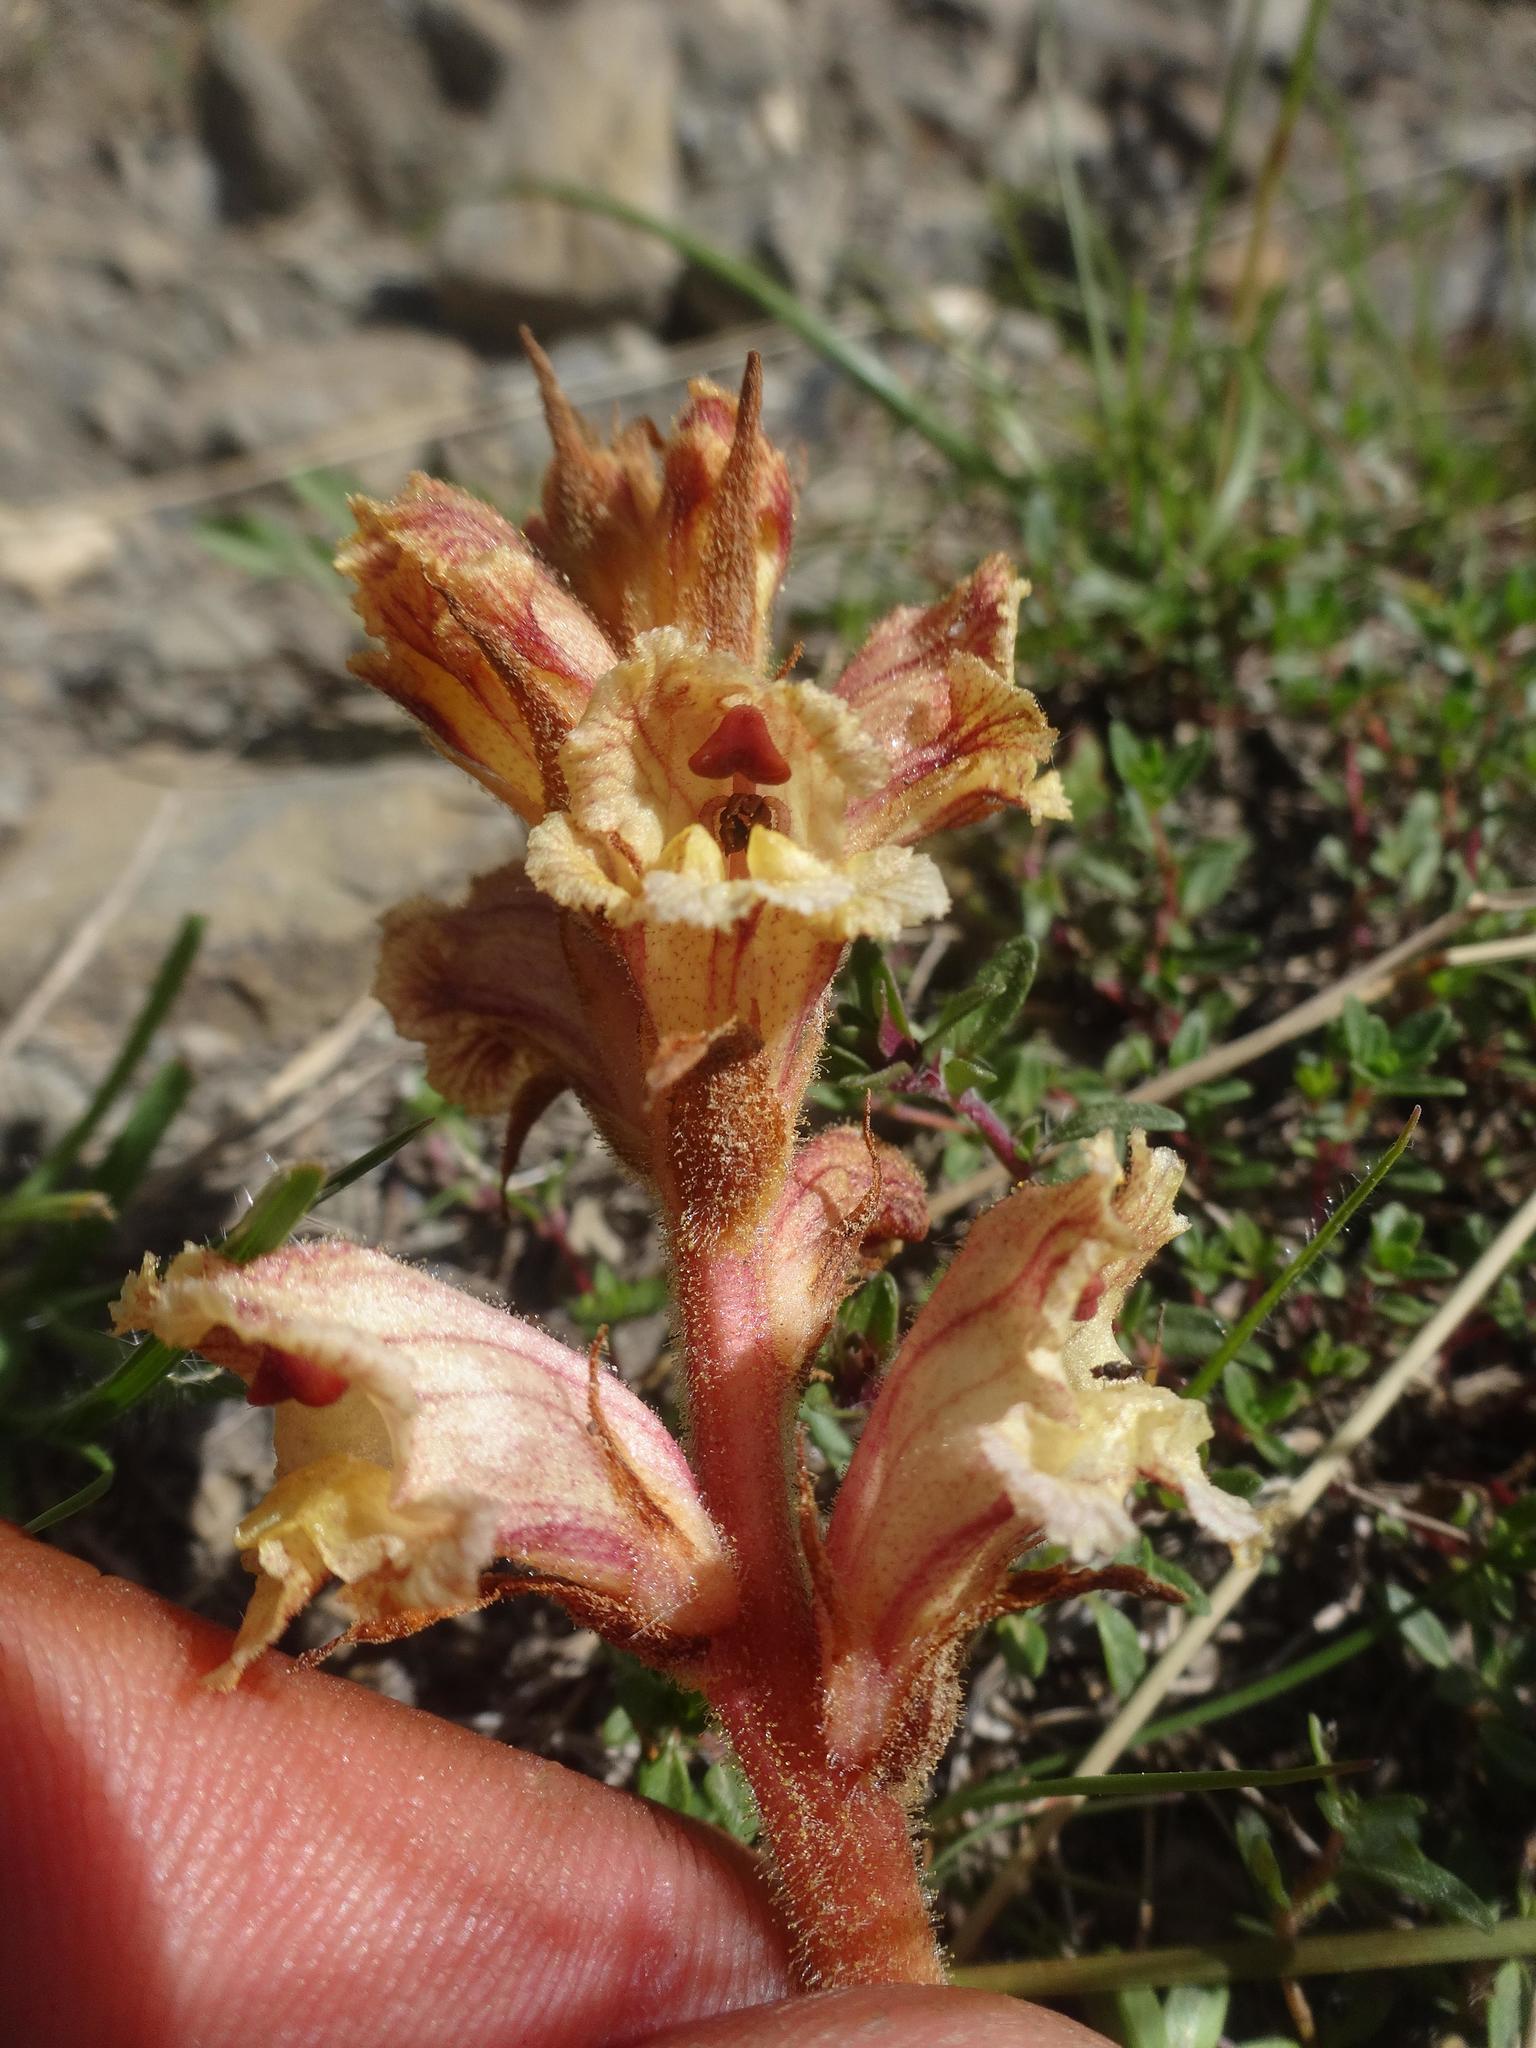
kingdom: Plantae
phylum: Tracheophyta
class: Magnoliopsida
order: Lamiales
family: Orobanchaceae
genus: Orobanche
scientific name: Orobanche alba
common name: Thyme broomrape
